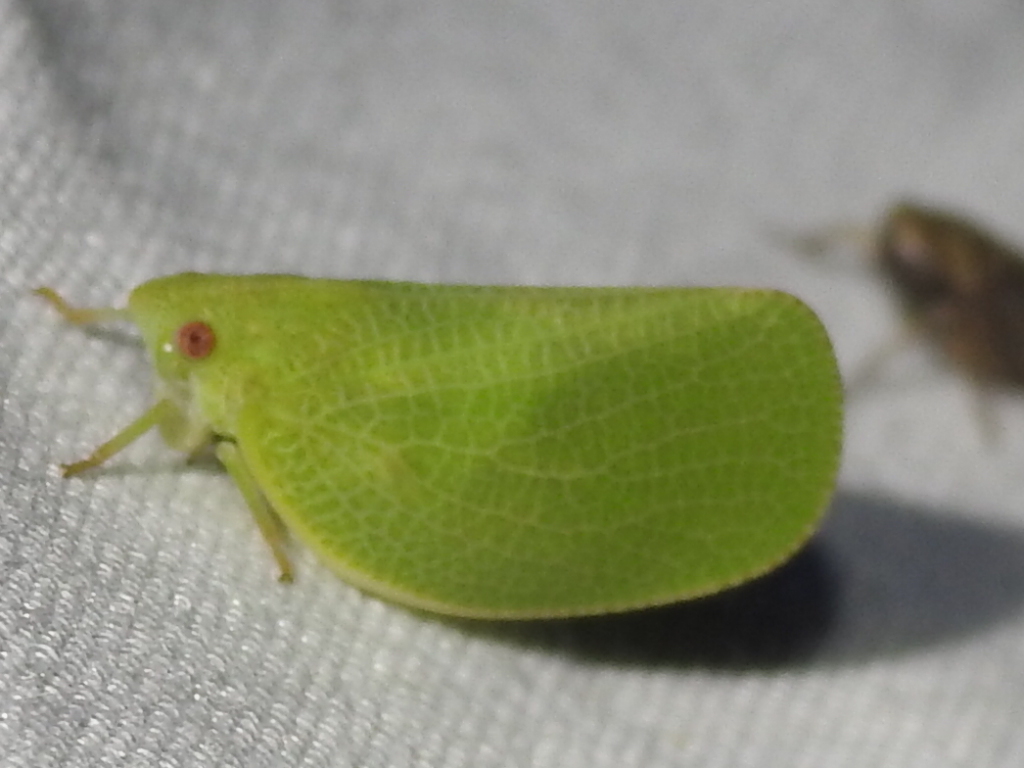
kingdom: Animalia
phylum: Arthropoda
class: Insecta
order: Hemiptera
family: Acanaloniidae
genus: Acanalonia
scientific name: Acanalonia conica
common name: Green cone-headed planthopper
